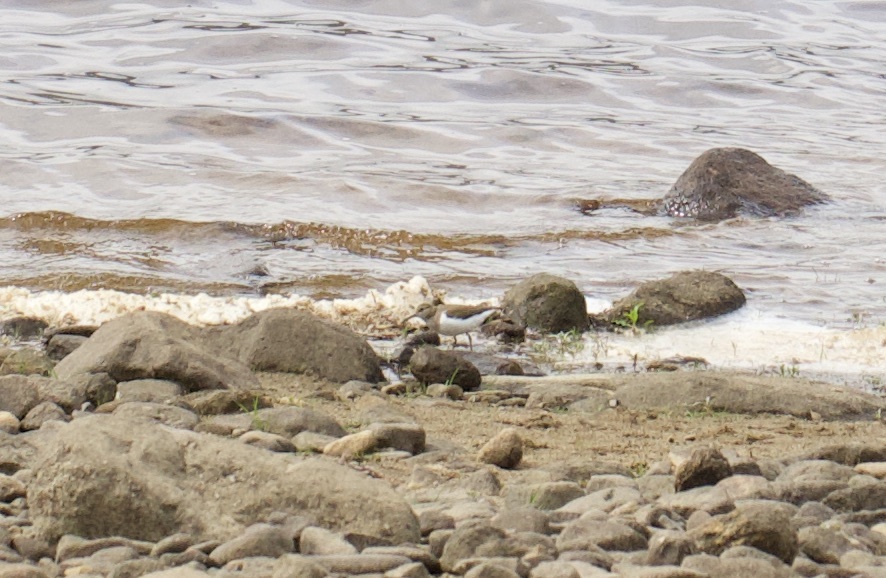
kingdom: Animalia
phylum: Chordata
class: Aves
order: Charadriiformes
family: Scolopacidae
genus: Actitis
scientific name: Actitis hypoleucos
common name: Common sandpiper
